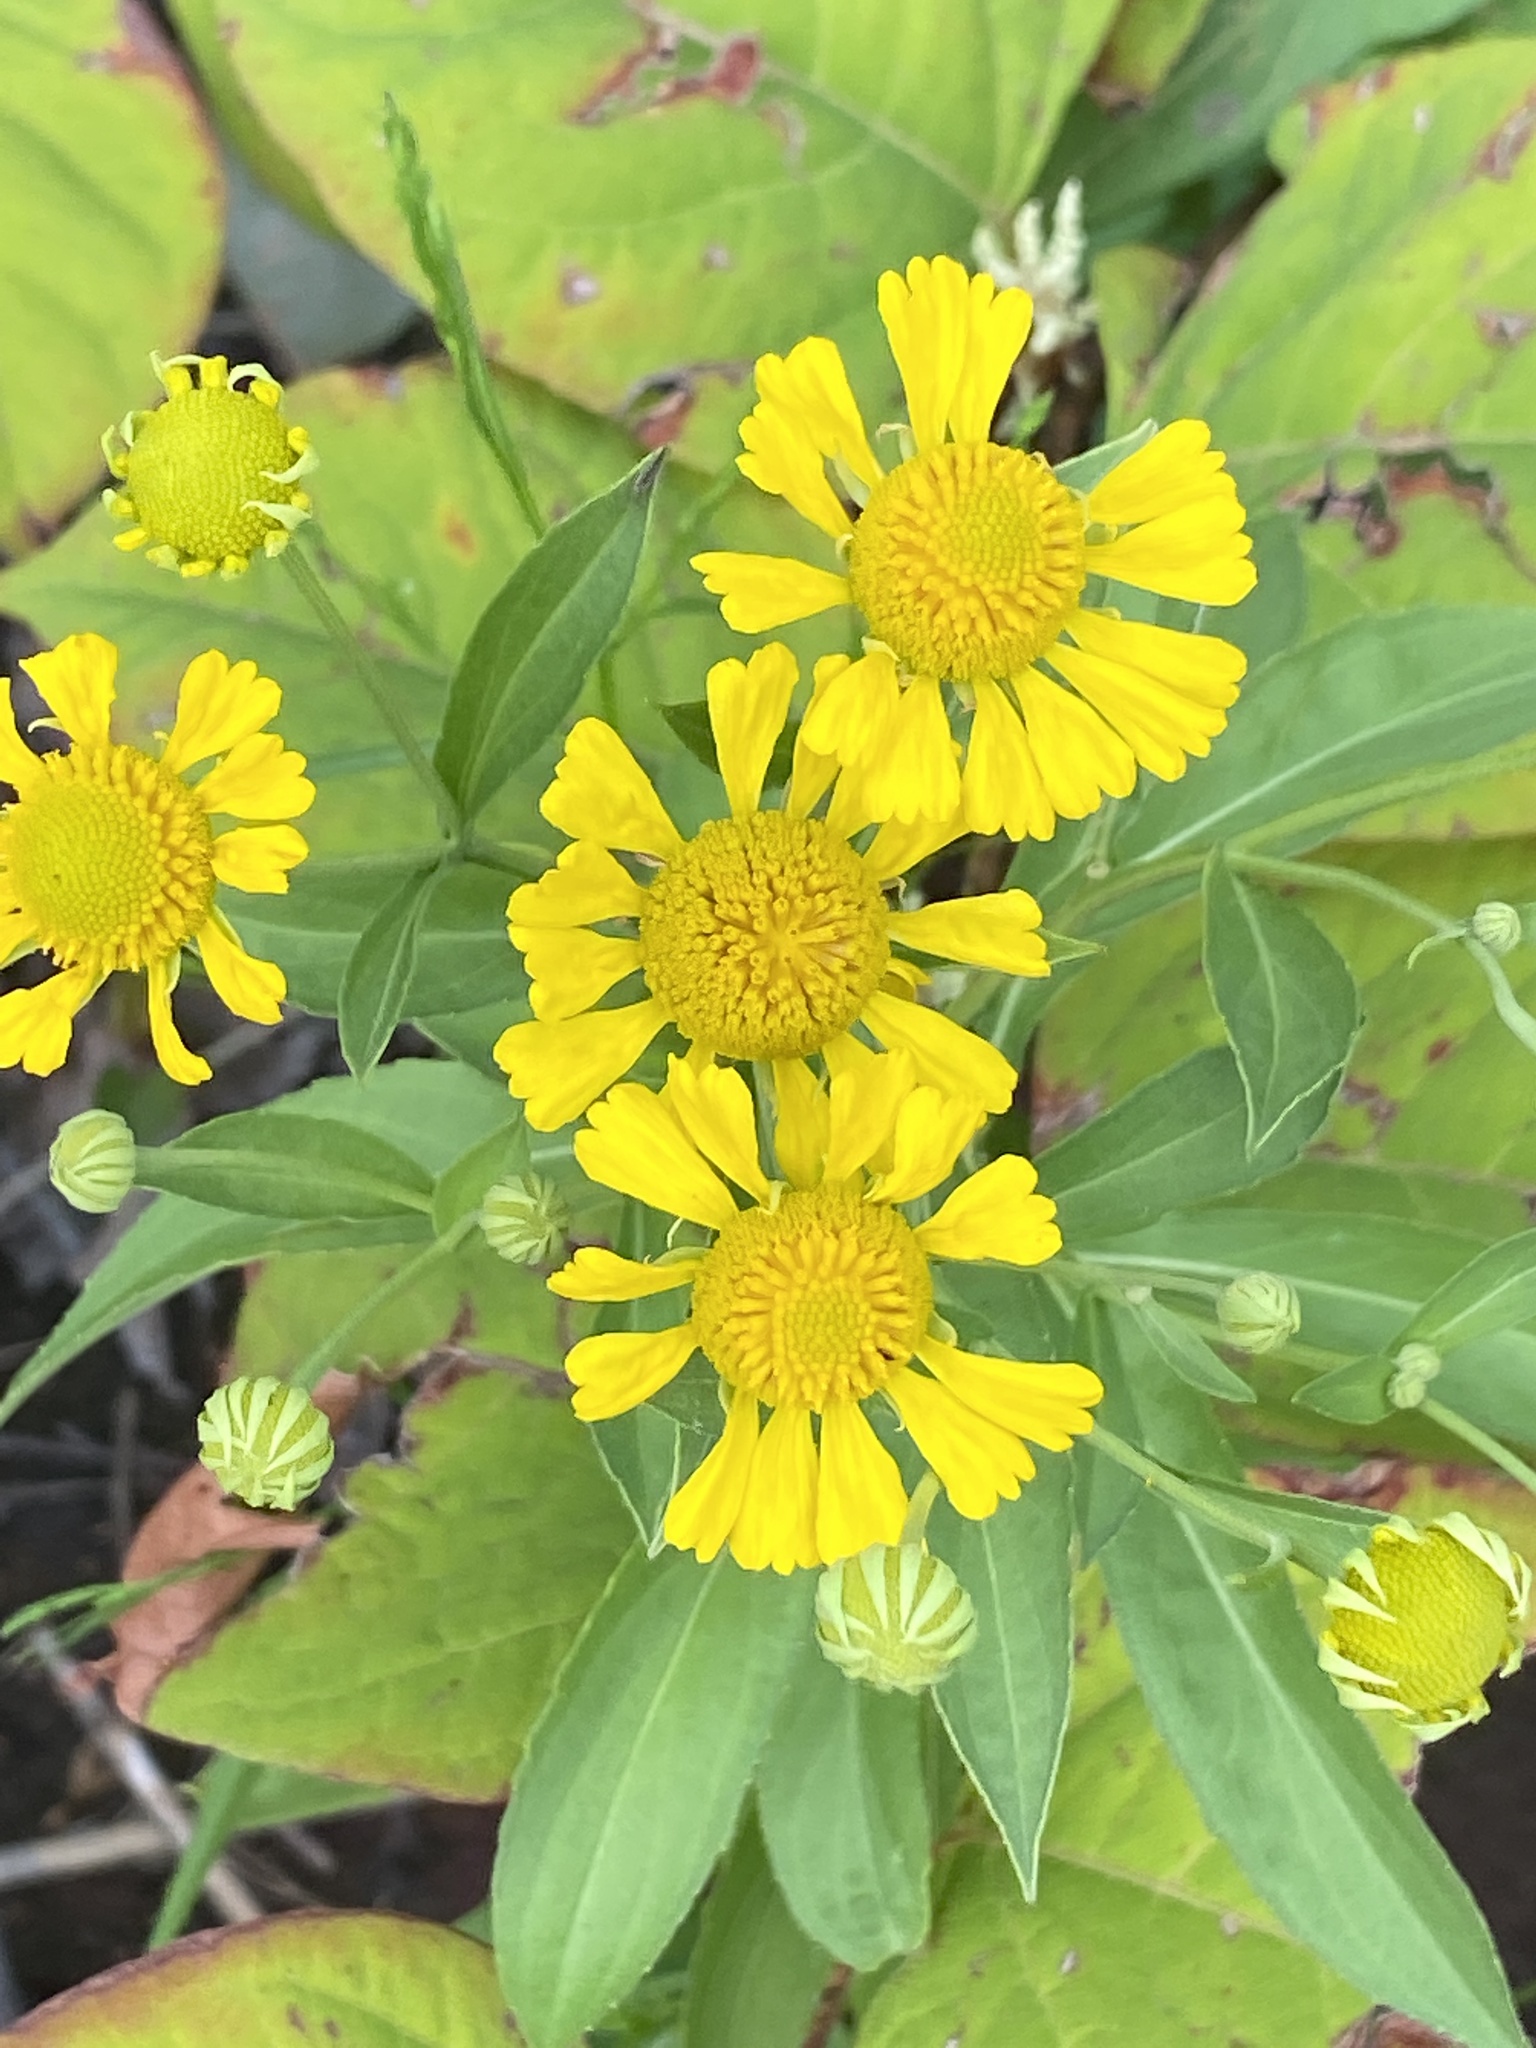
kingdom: Plantae
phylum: Tracheophyta
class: Magnoliopsida
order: Asterales
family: Asteraceae
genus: Helenium
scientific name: Helenium autumnale
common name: Sneezeweed
